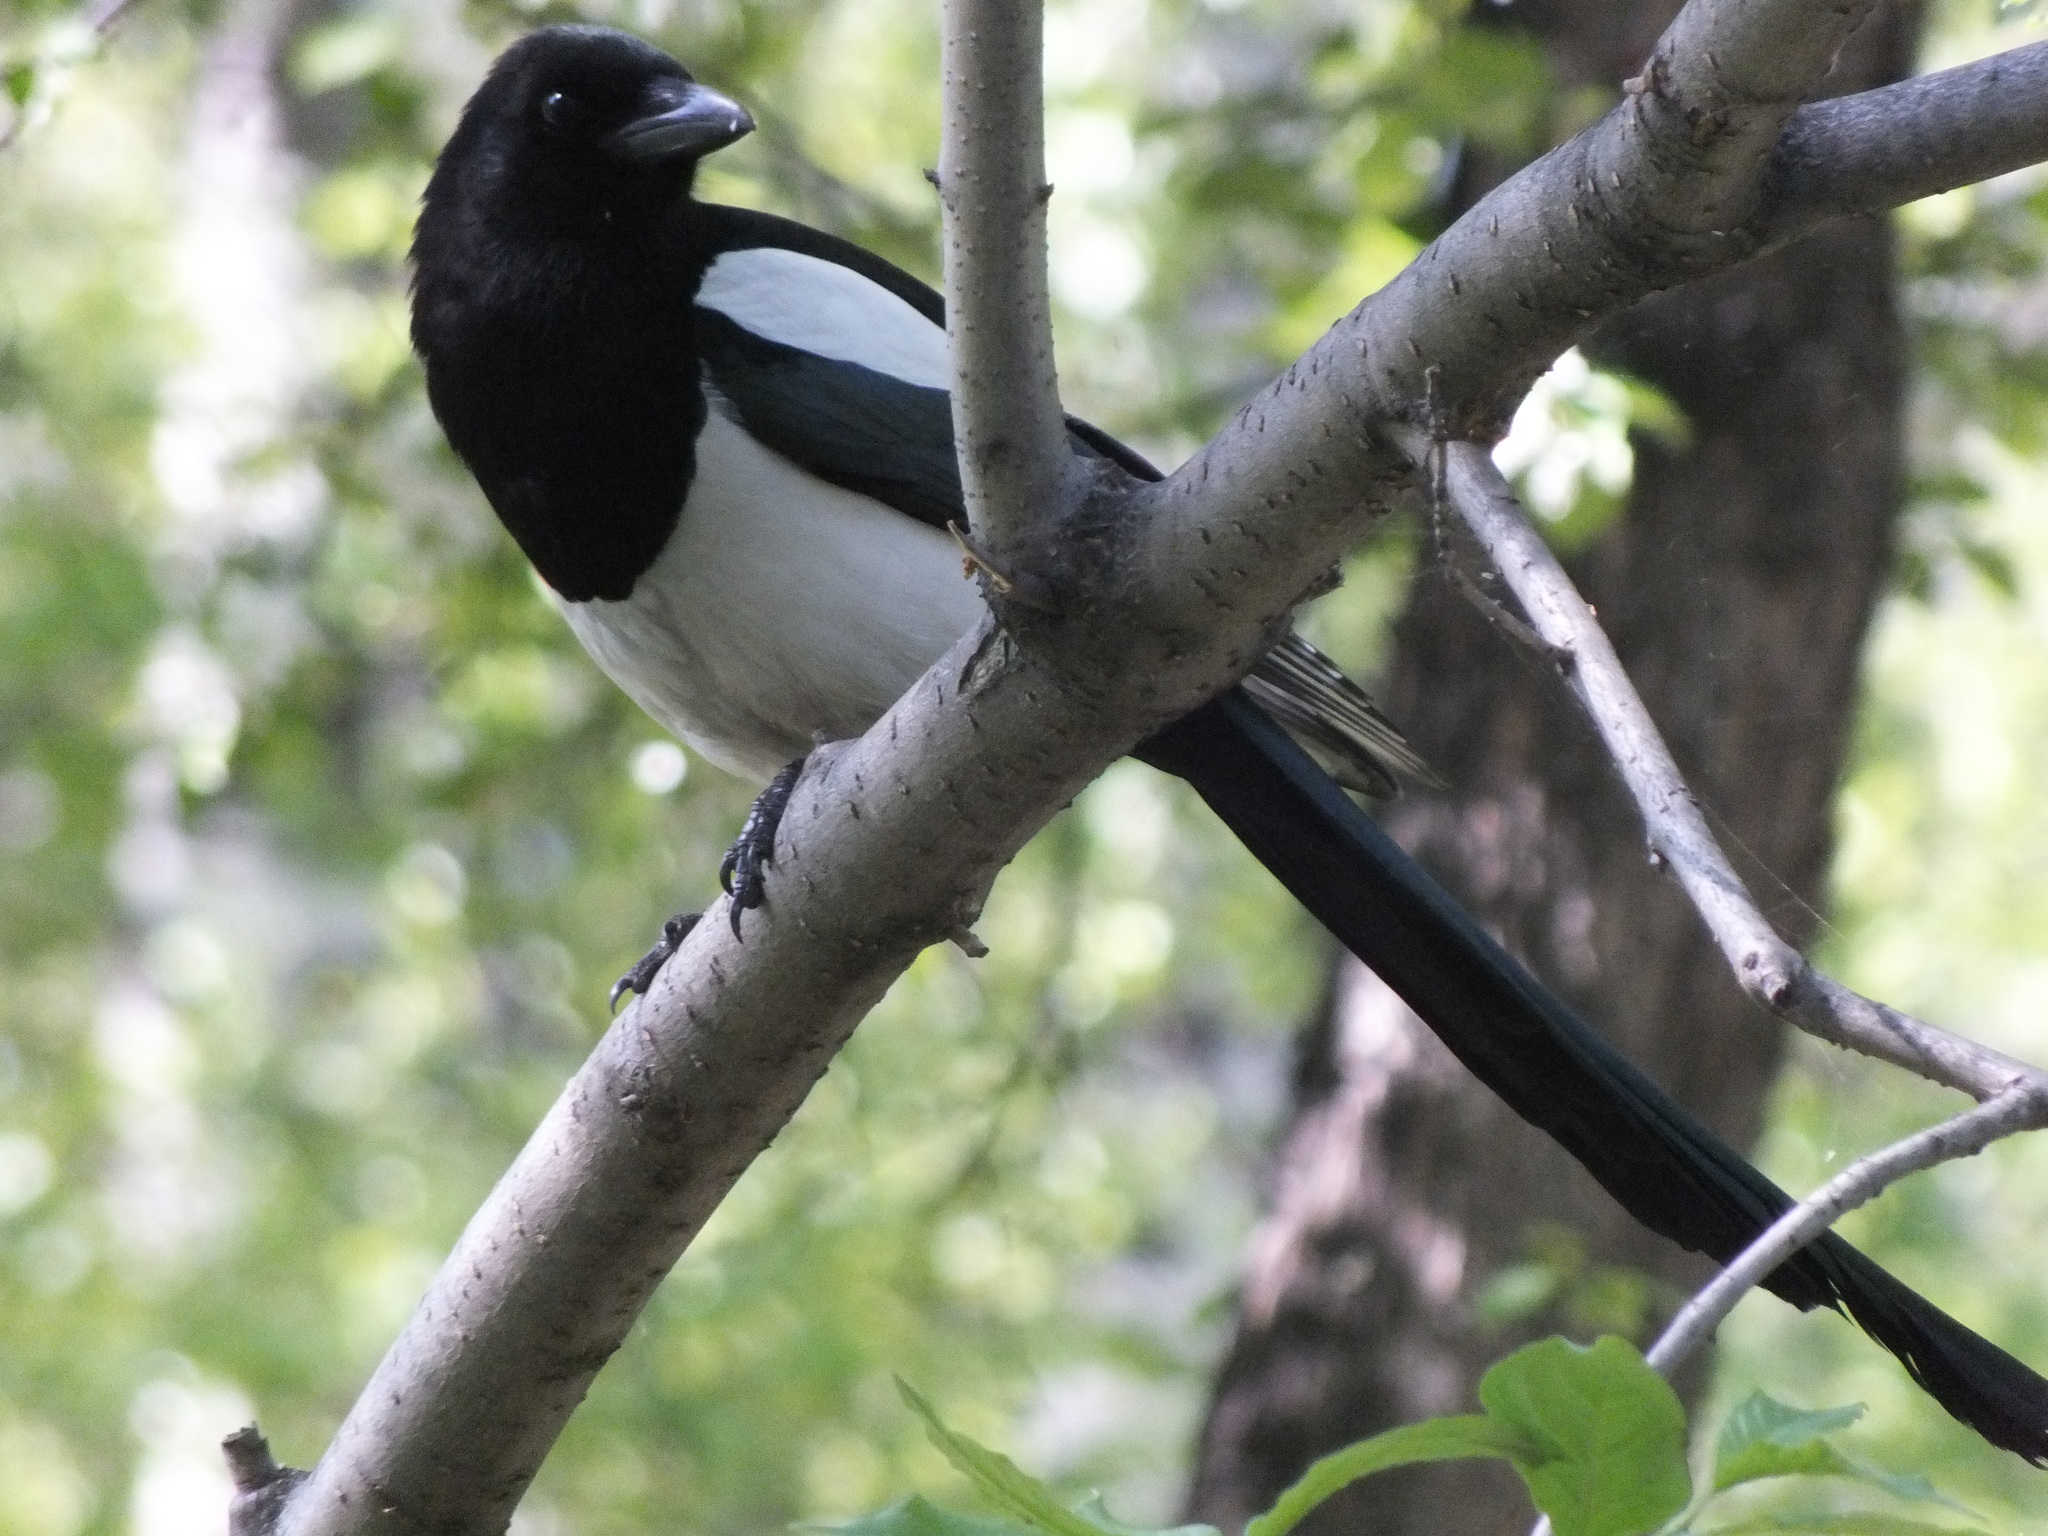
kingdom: Animalia
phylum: Chordata
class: Aves
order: Passeriformes
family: Corvidae
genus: Pica
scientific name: Pica pica
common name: Eurasian magpie
